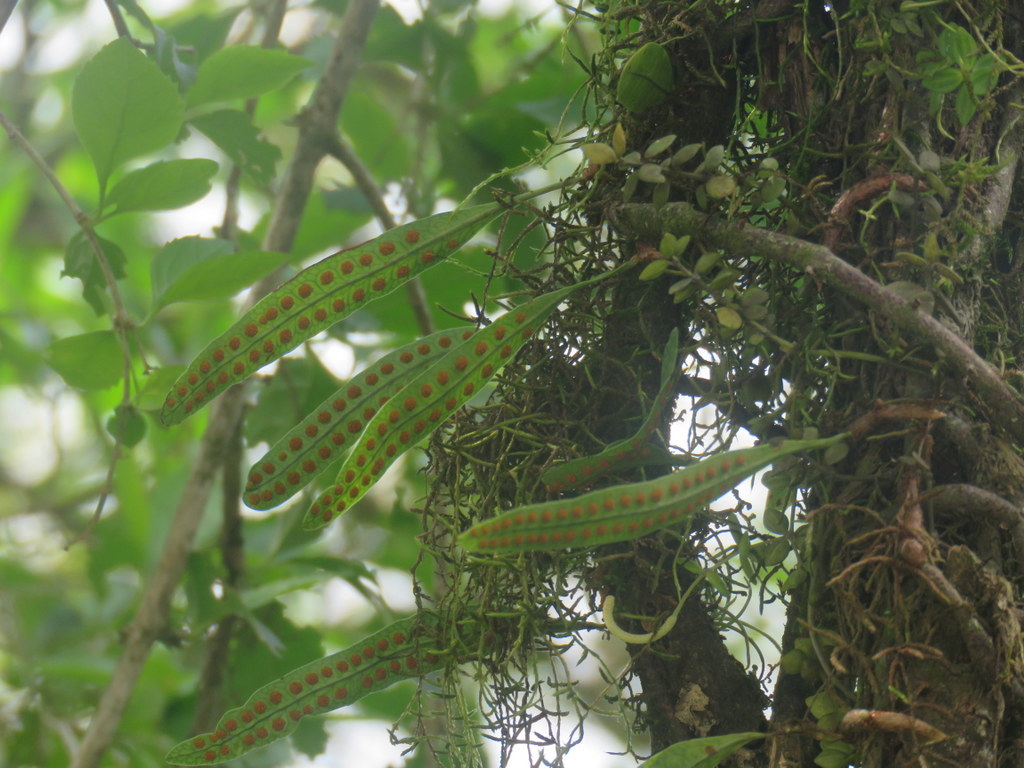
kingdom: Plantae
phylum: Tracheophyta
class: Polypodiopsida
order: Polypodiales
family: Polypodiaceae
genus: Microgramma
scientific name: Microgramma mortoniana
